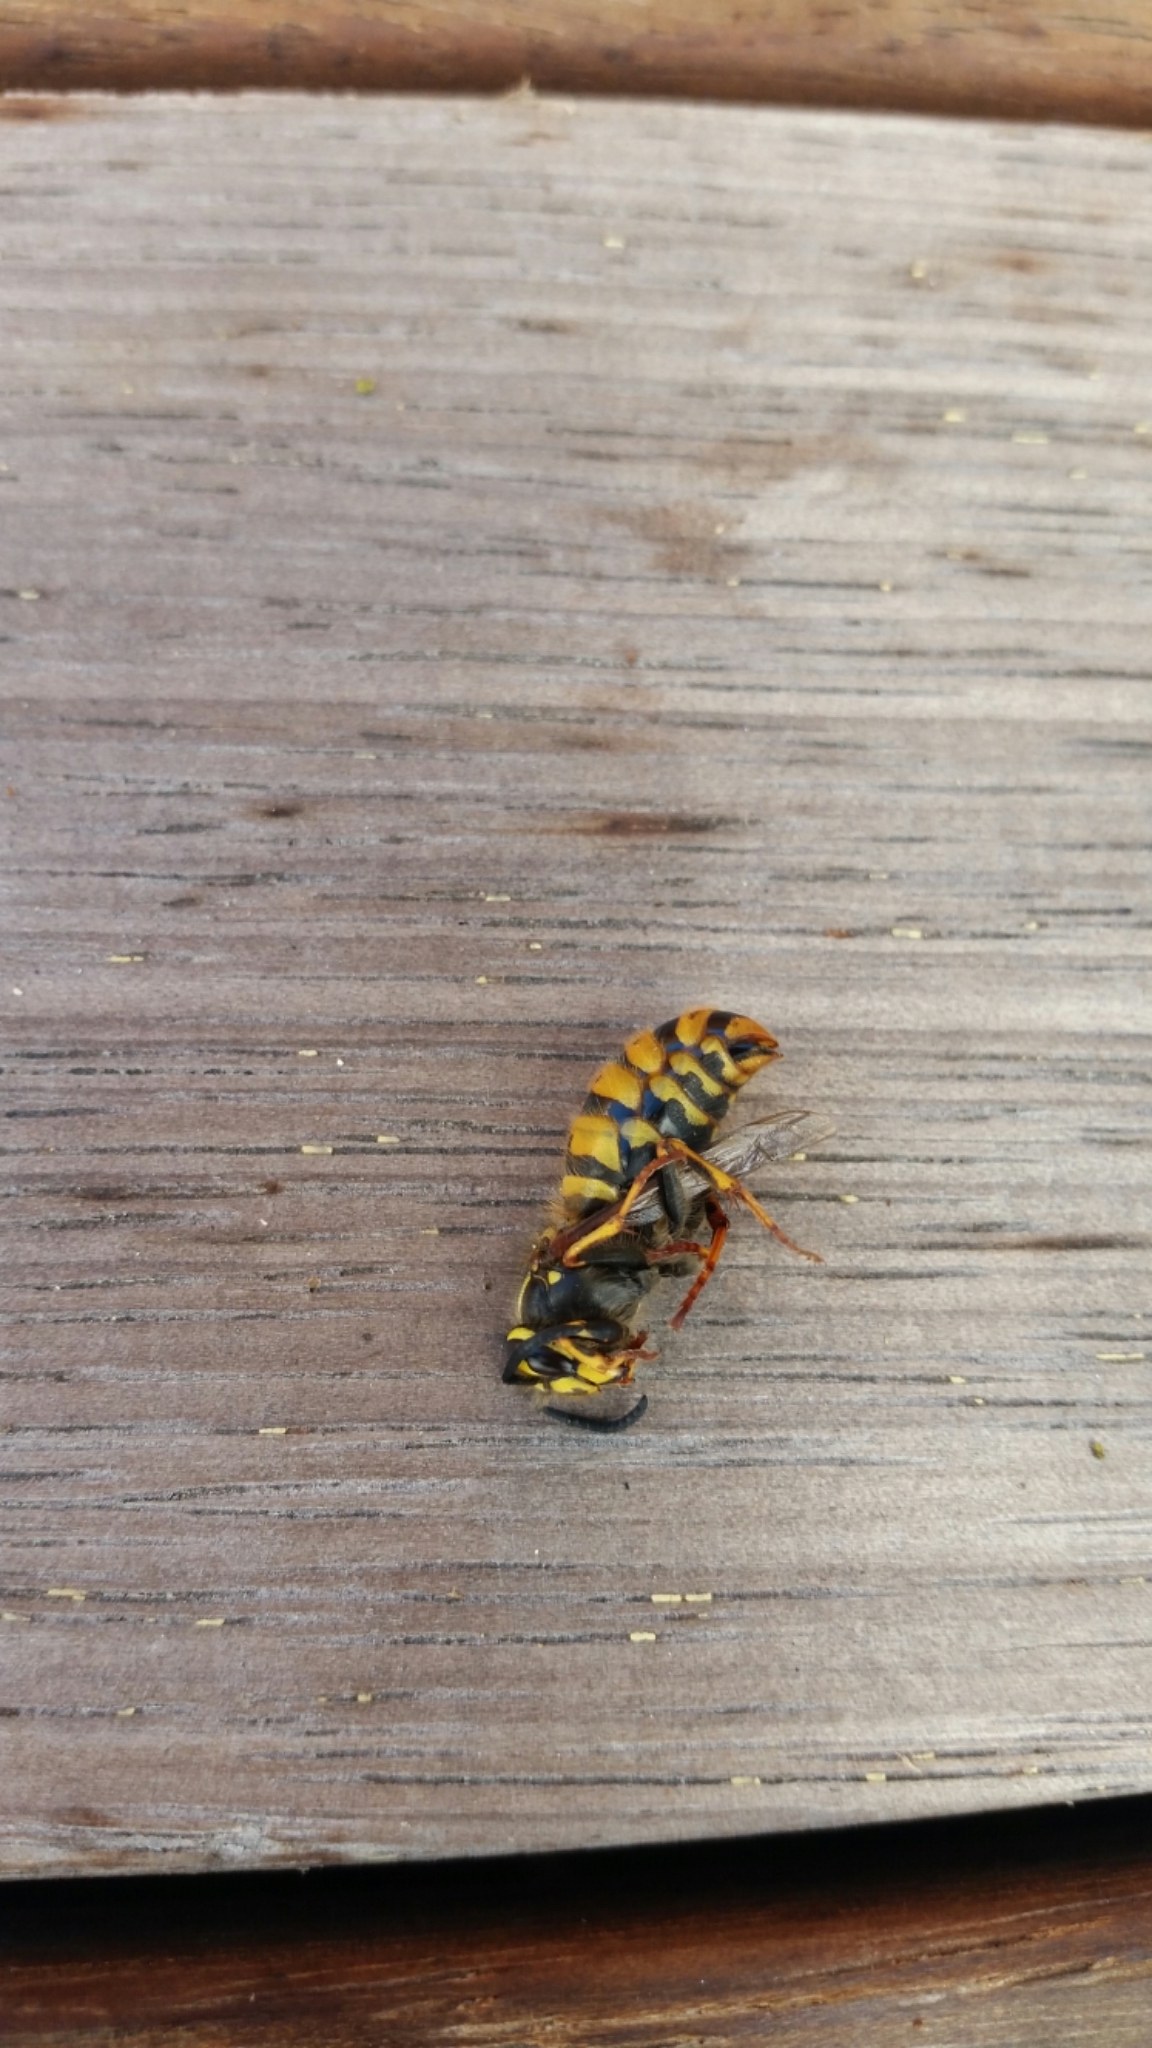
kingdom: Animalia
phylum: Arthropoda
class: Insecta
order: Hymenoptera
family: Vespidae
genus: Vespula
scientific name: Vespula vulgaris
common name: Common wasp
